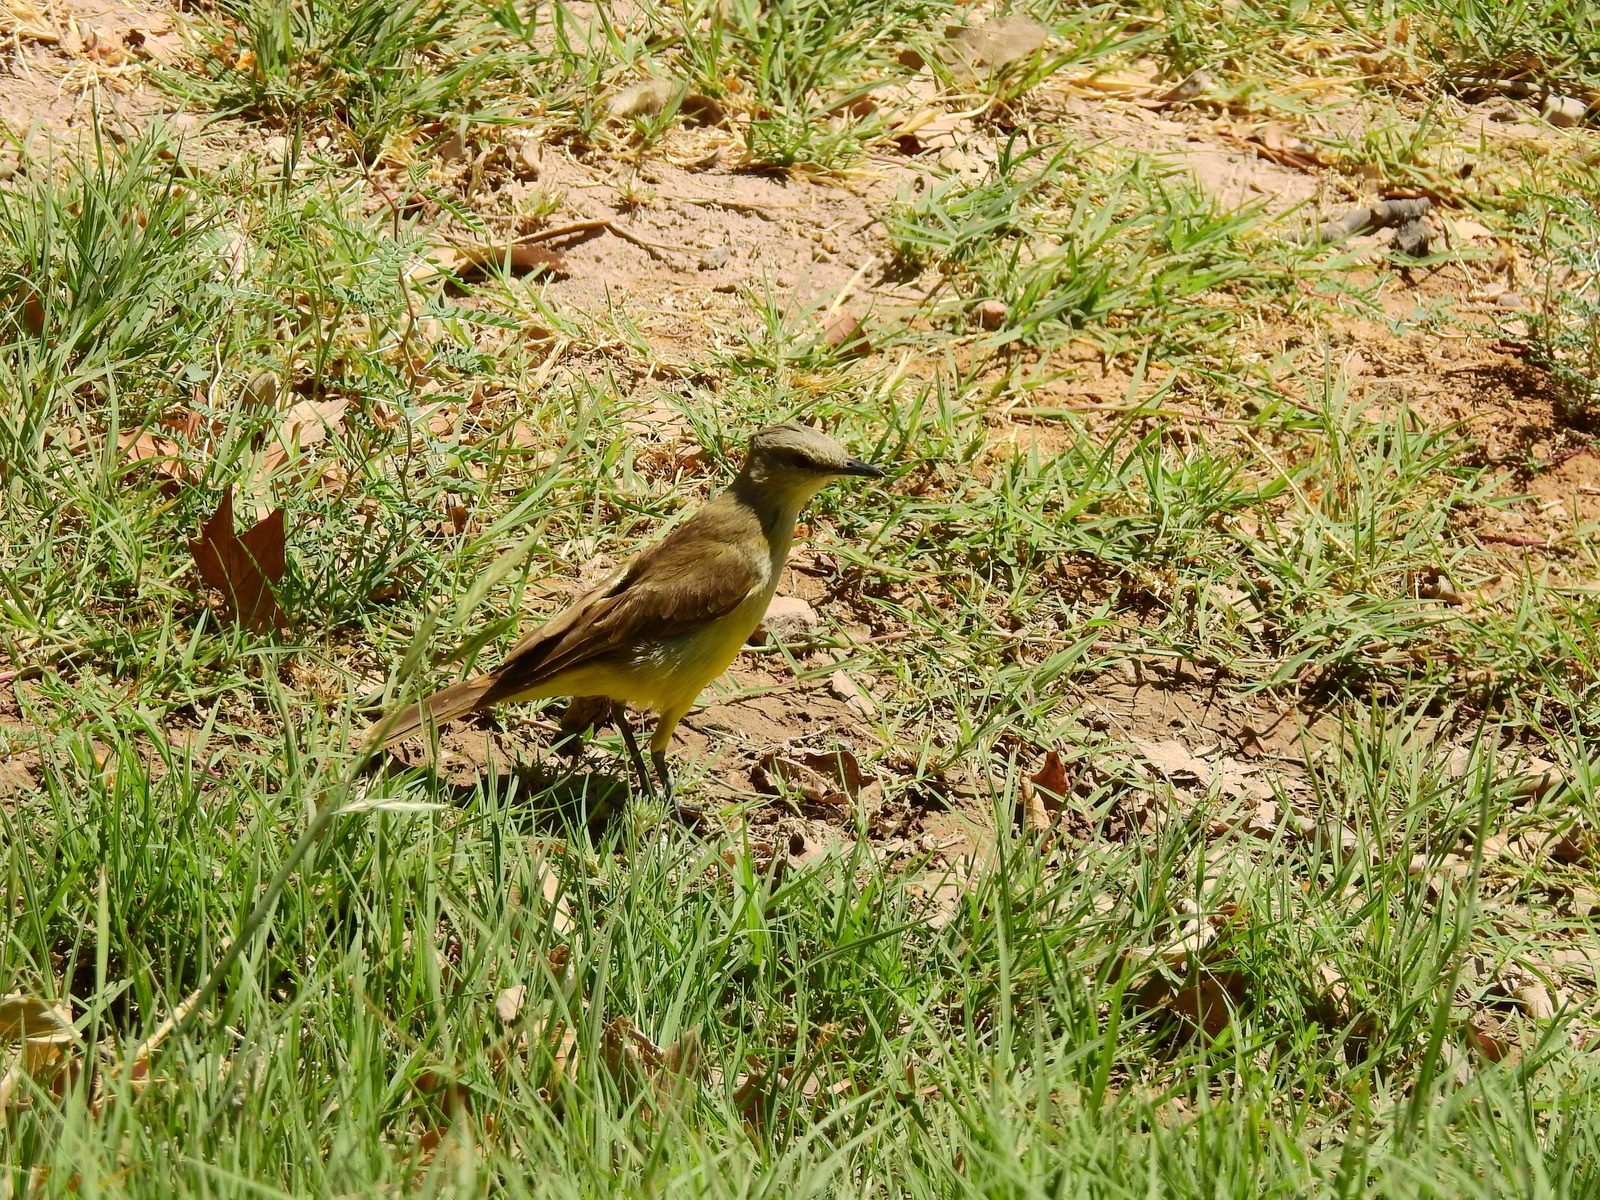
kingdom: Animalia
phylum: Chordata
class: Aves
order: Passeriformes
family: Tyrannidae
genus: Machetornis
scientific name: Machetornis rixosa
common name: Cattle tyrant
